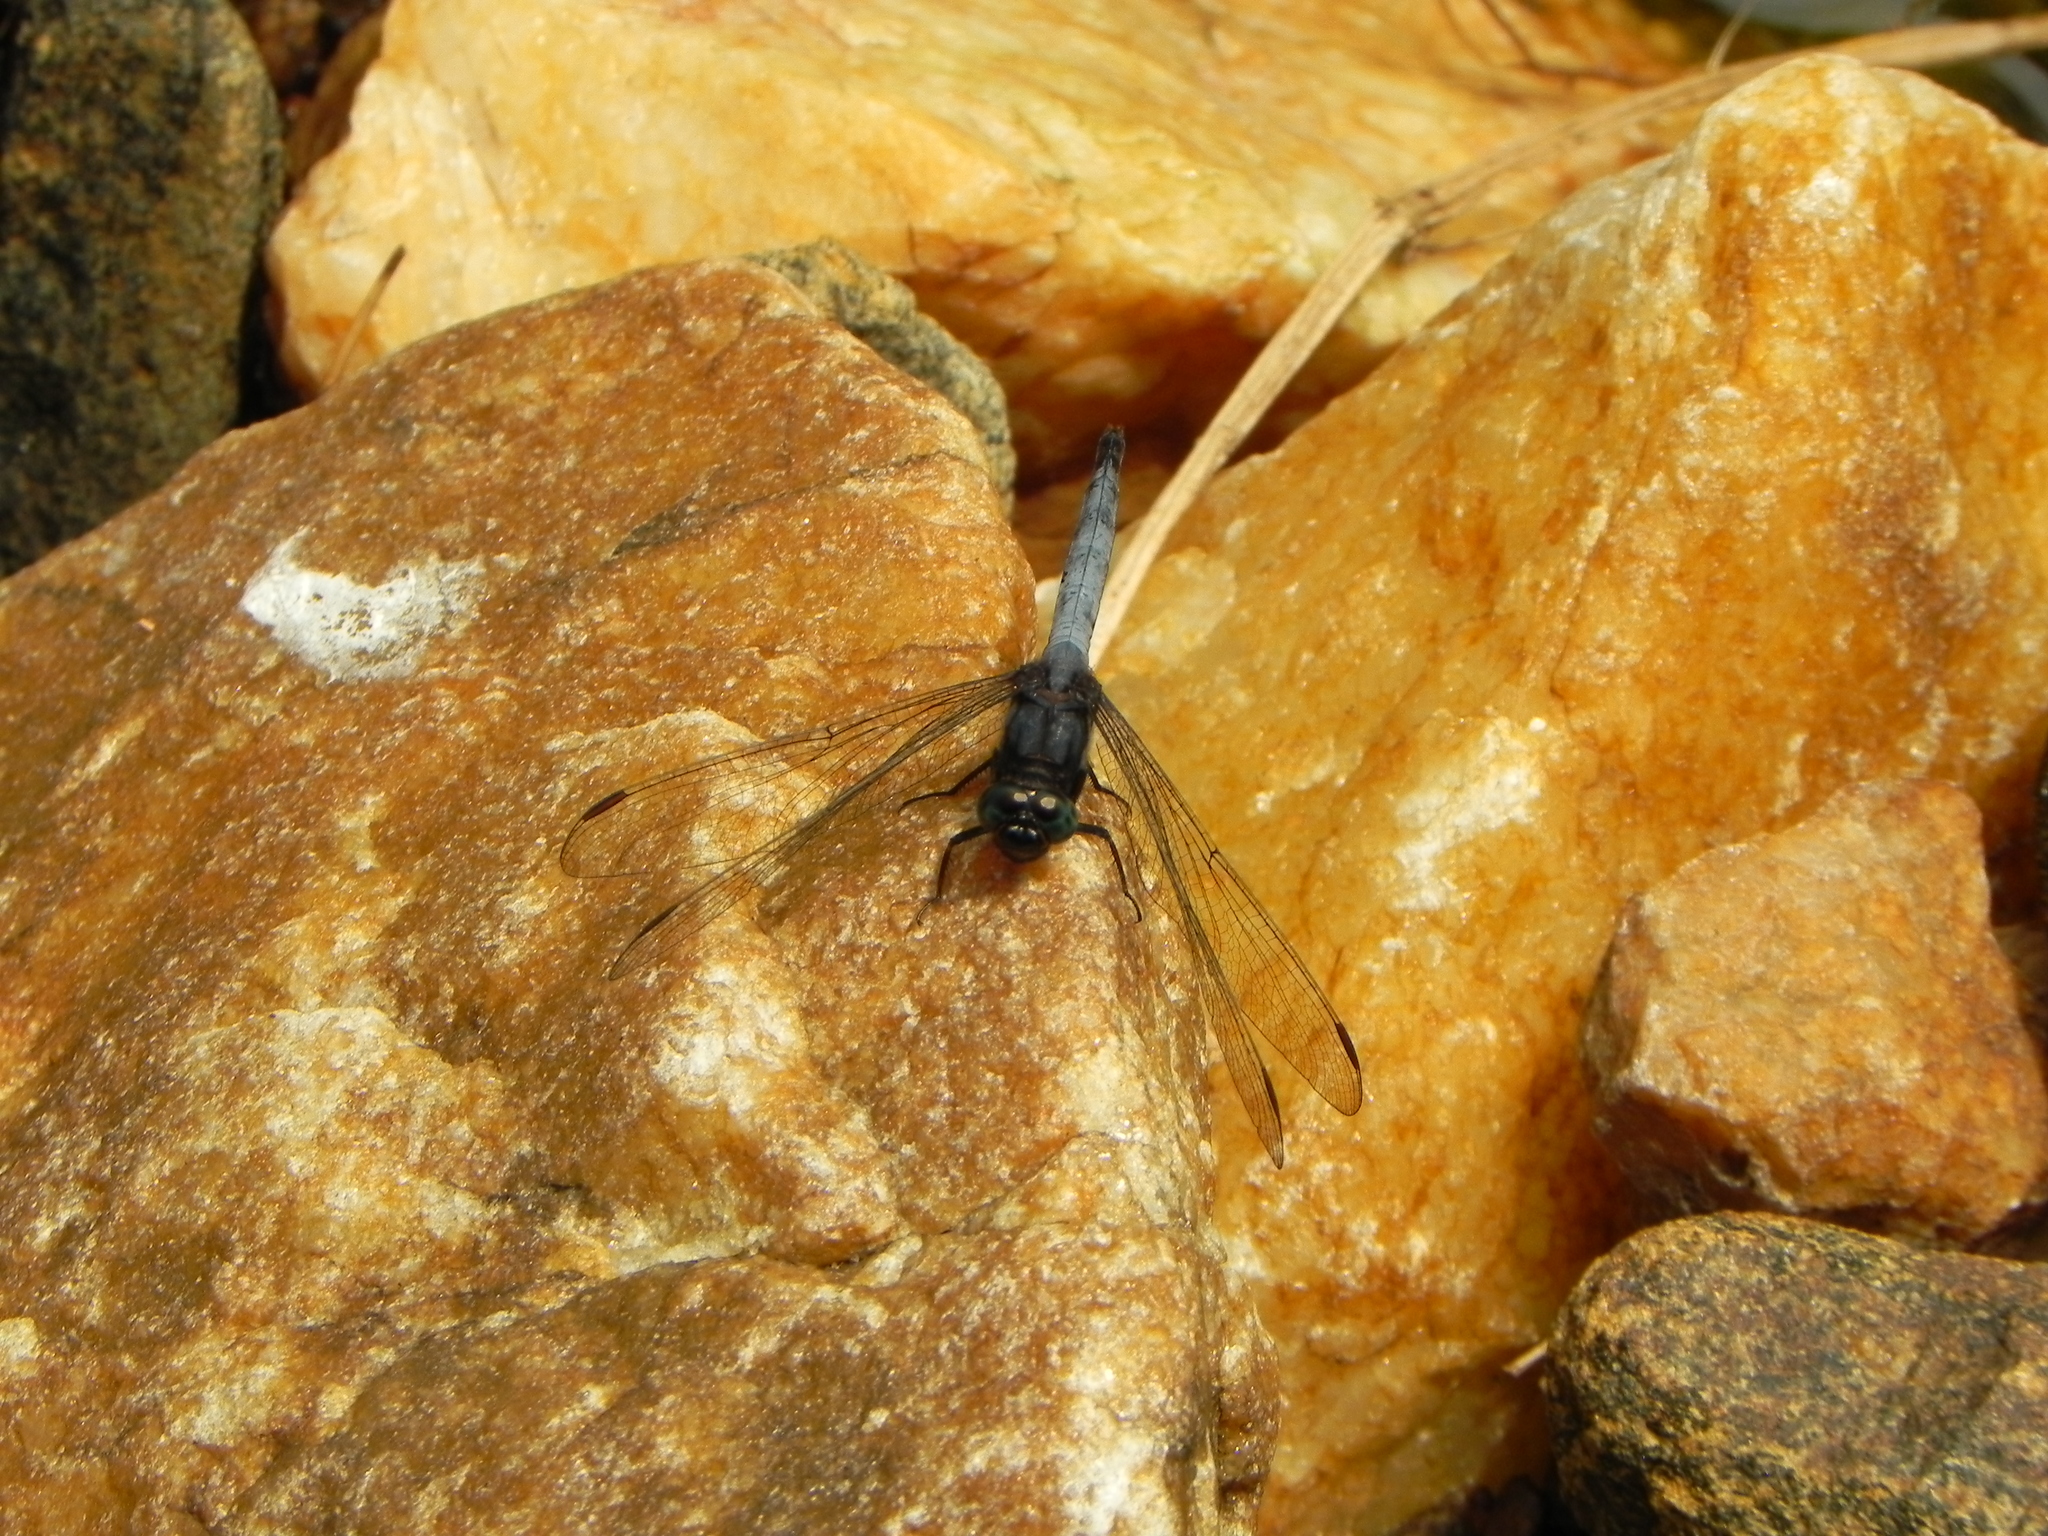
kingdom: Animalia
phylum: Arthropoda
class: Insecta
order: Odonata
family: Libellulidae
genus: Orthetrum
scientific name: Orthetrum glaucum
